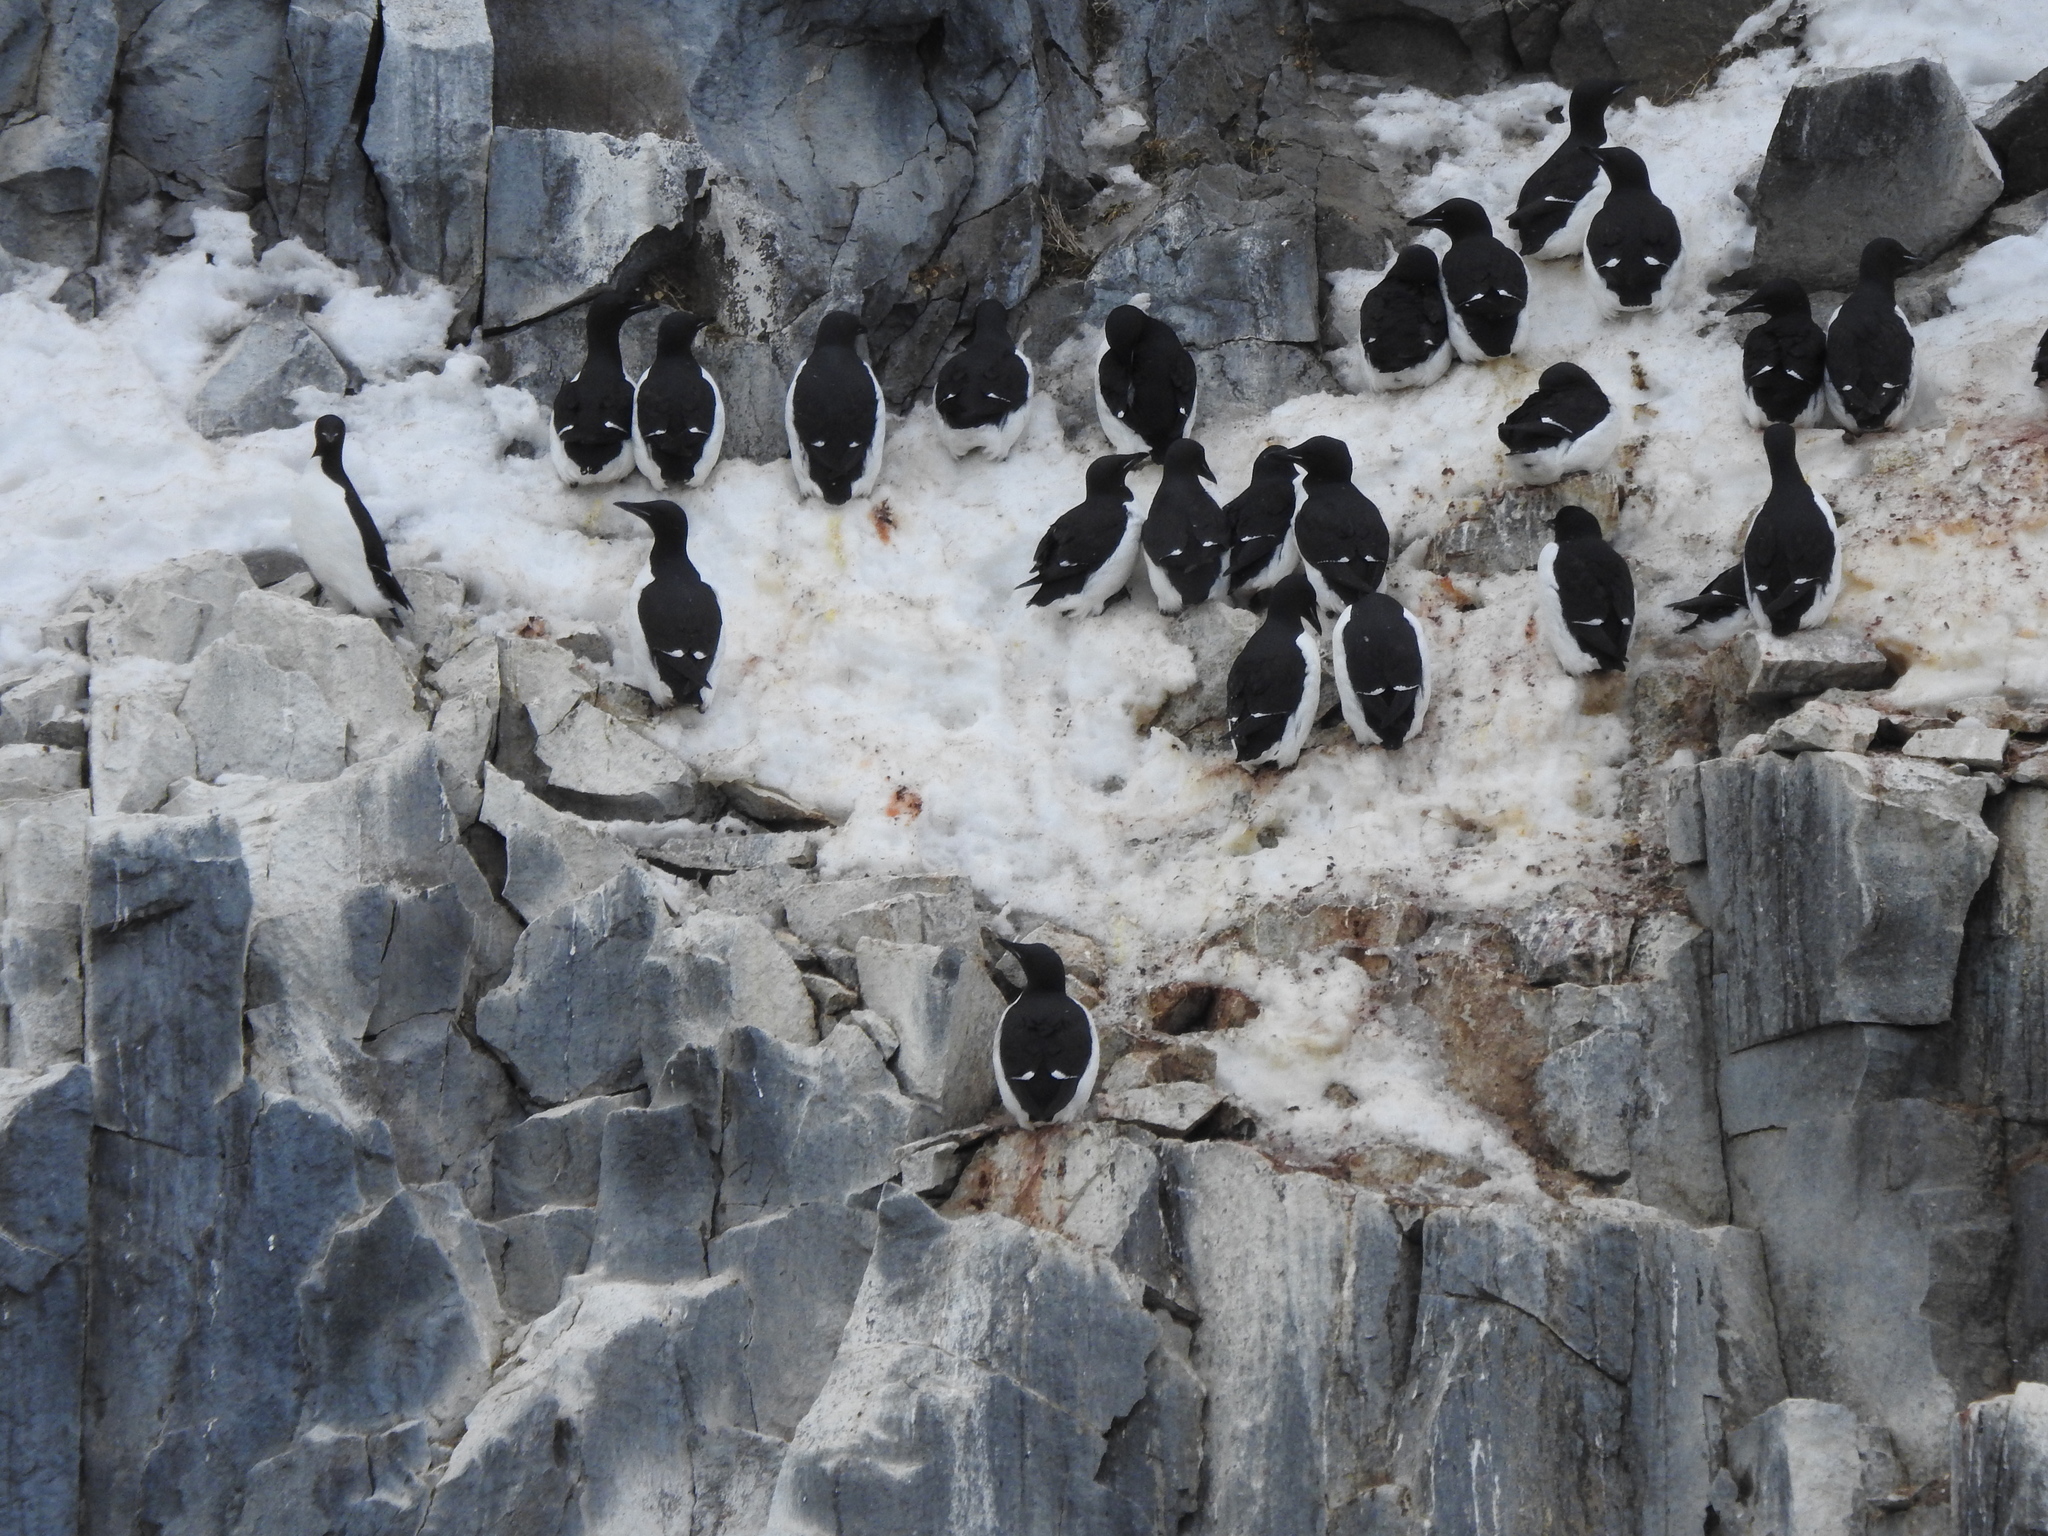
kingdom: Animalia
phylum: Chordata
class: Aves
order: Charadriiformes
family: Alcidae
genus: Uria
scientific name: Uria lomvia
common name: Thick-billed murre
